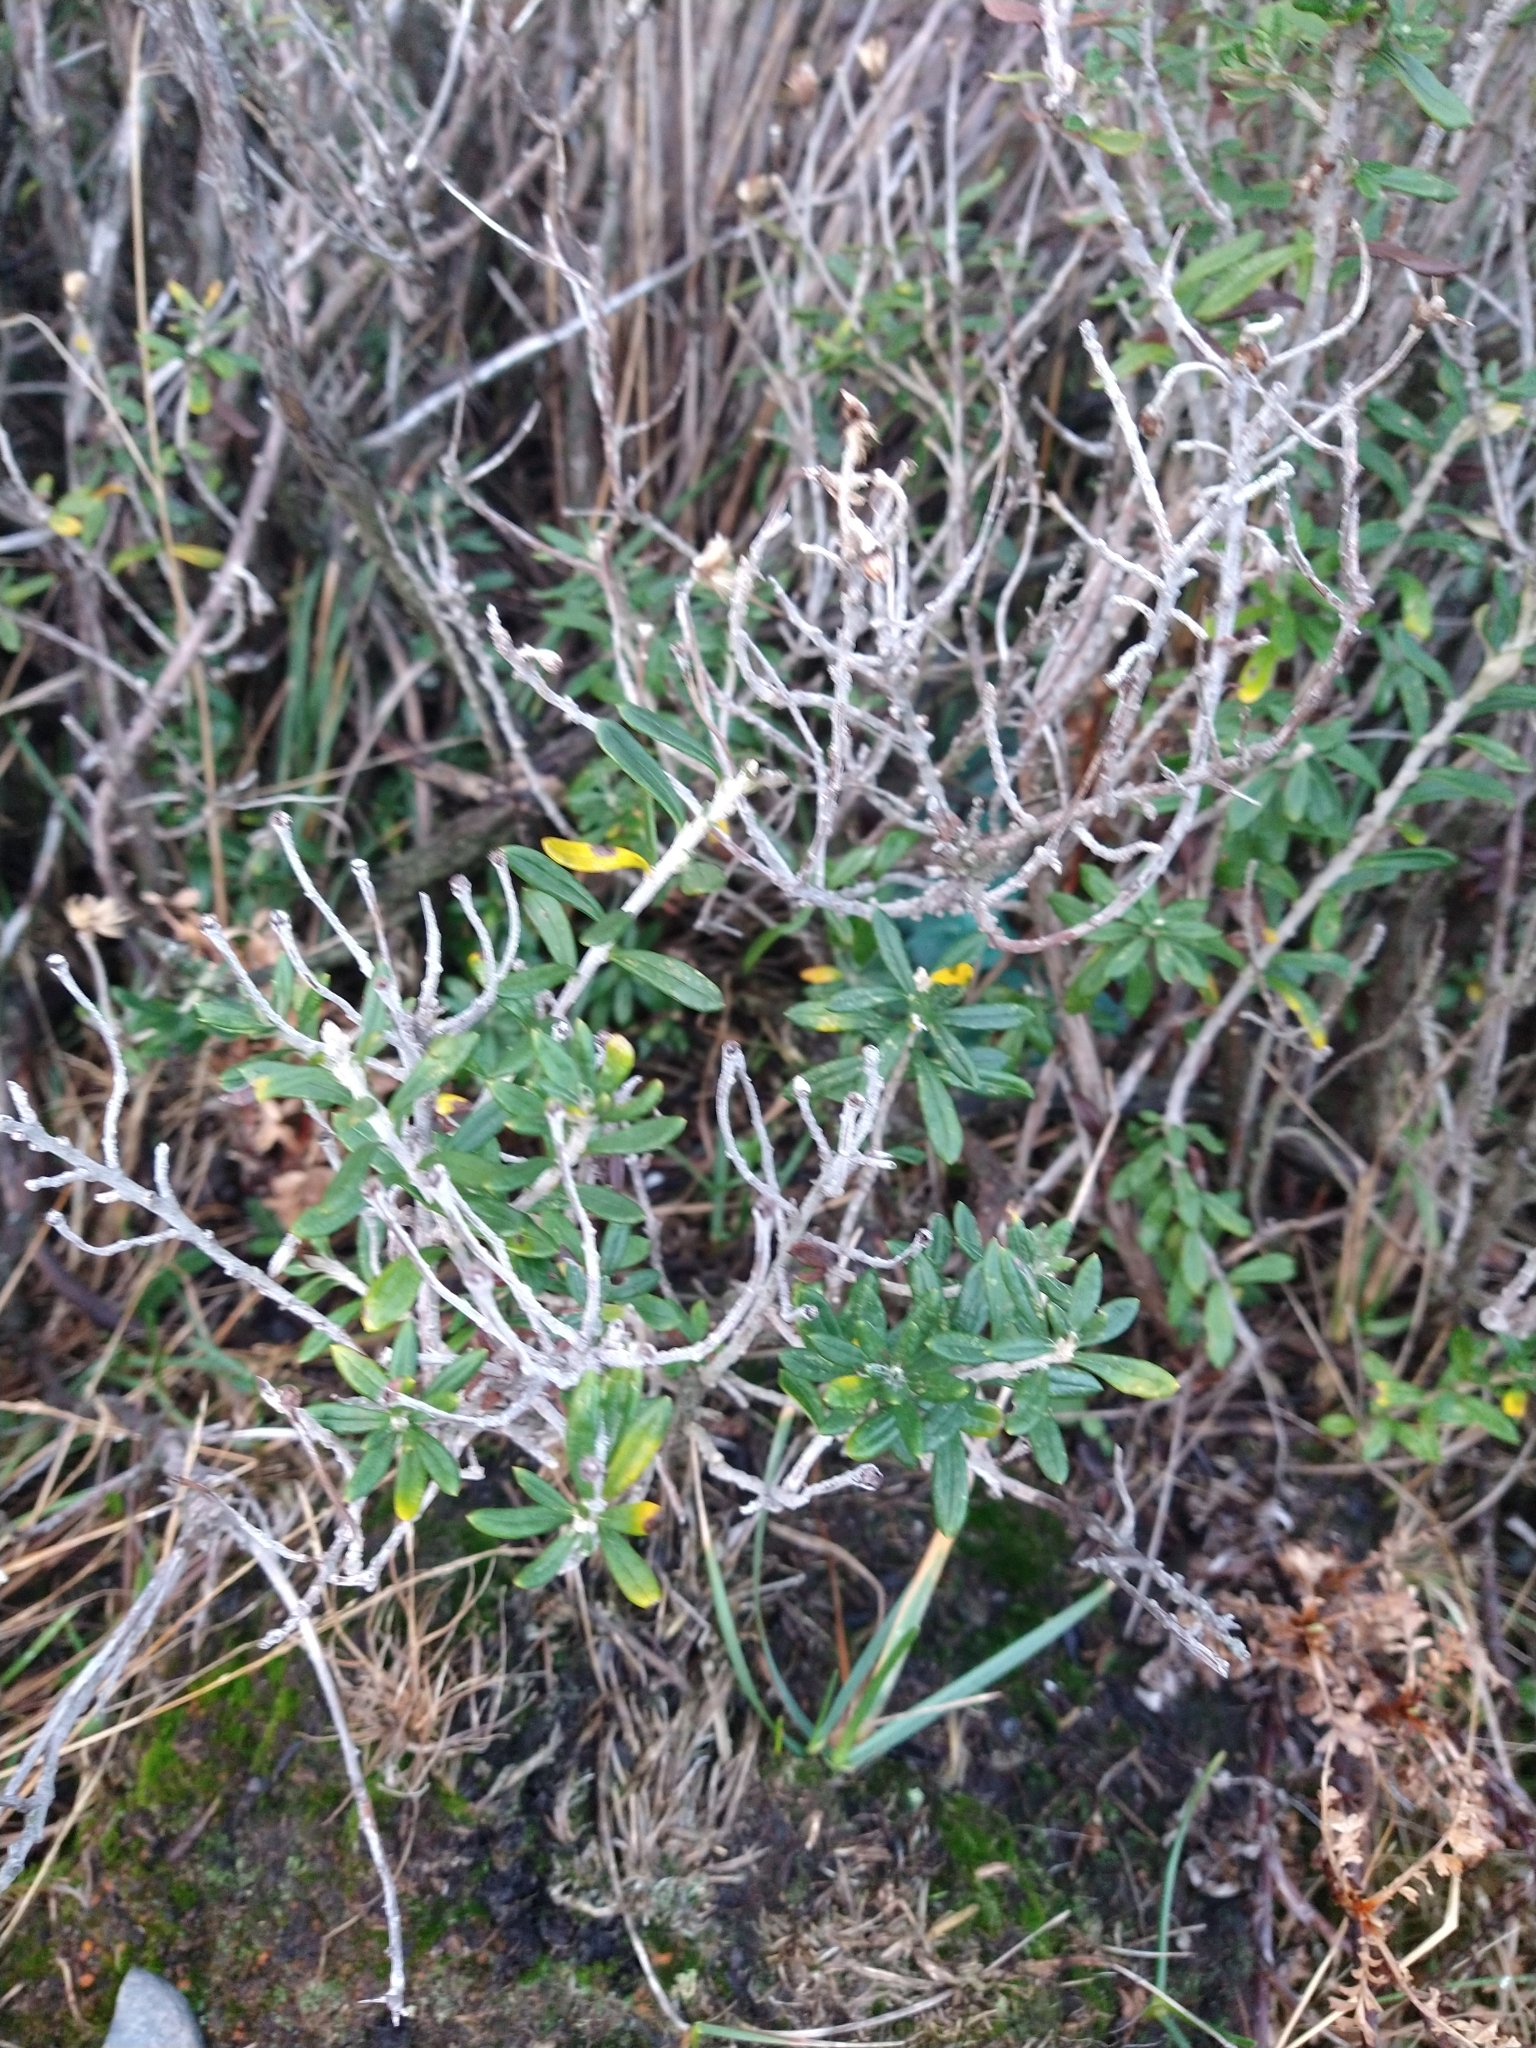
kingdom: Plantae
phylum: Tracheophyta
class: Magnoliopsida
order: Asterales
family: Asteraceae
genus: Chiliotrichum
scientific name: Chiliotrichum diffusum
